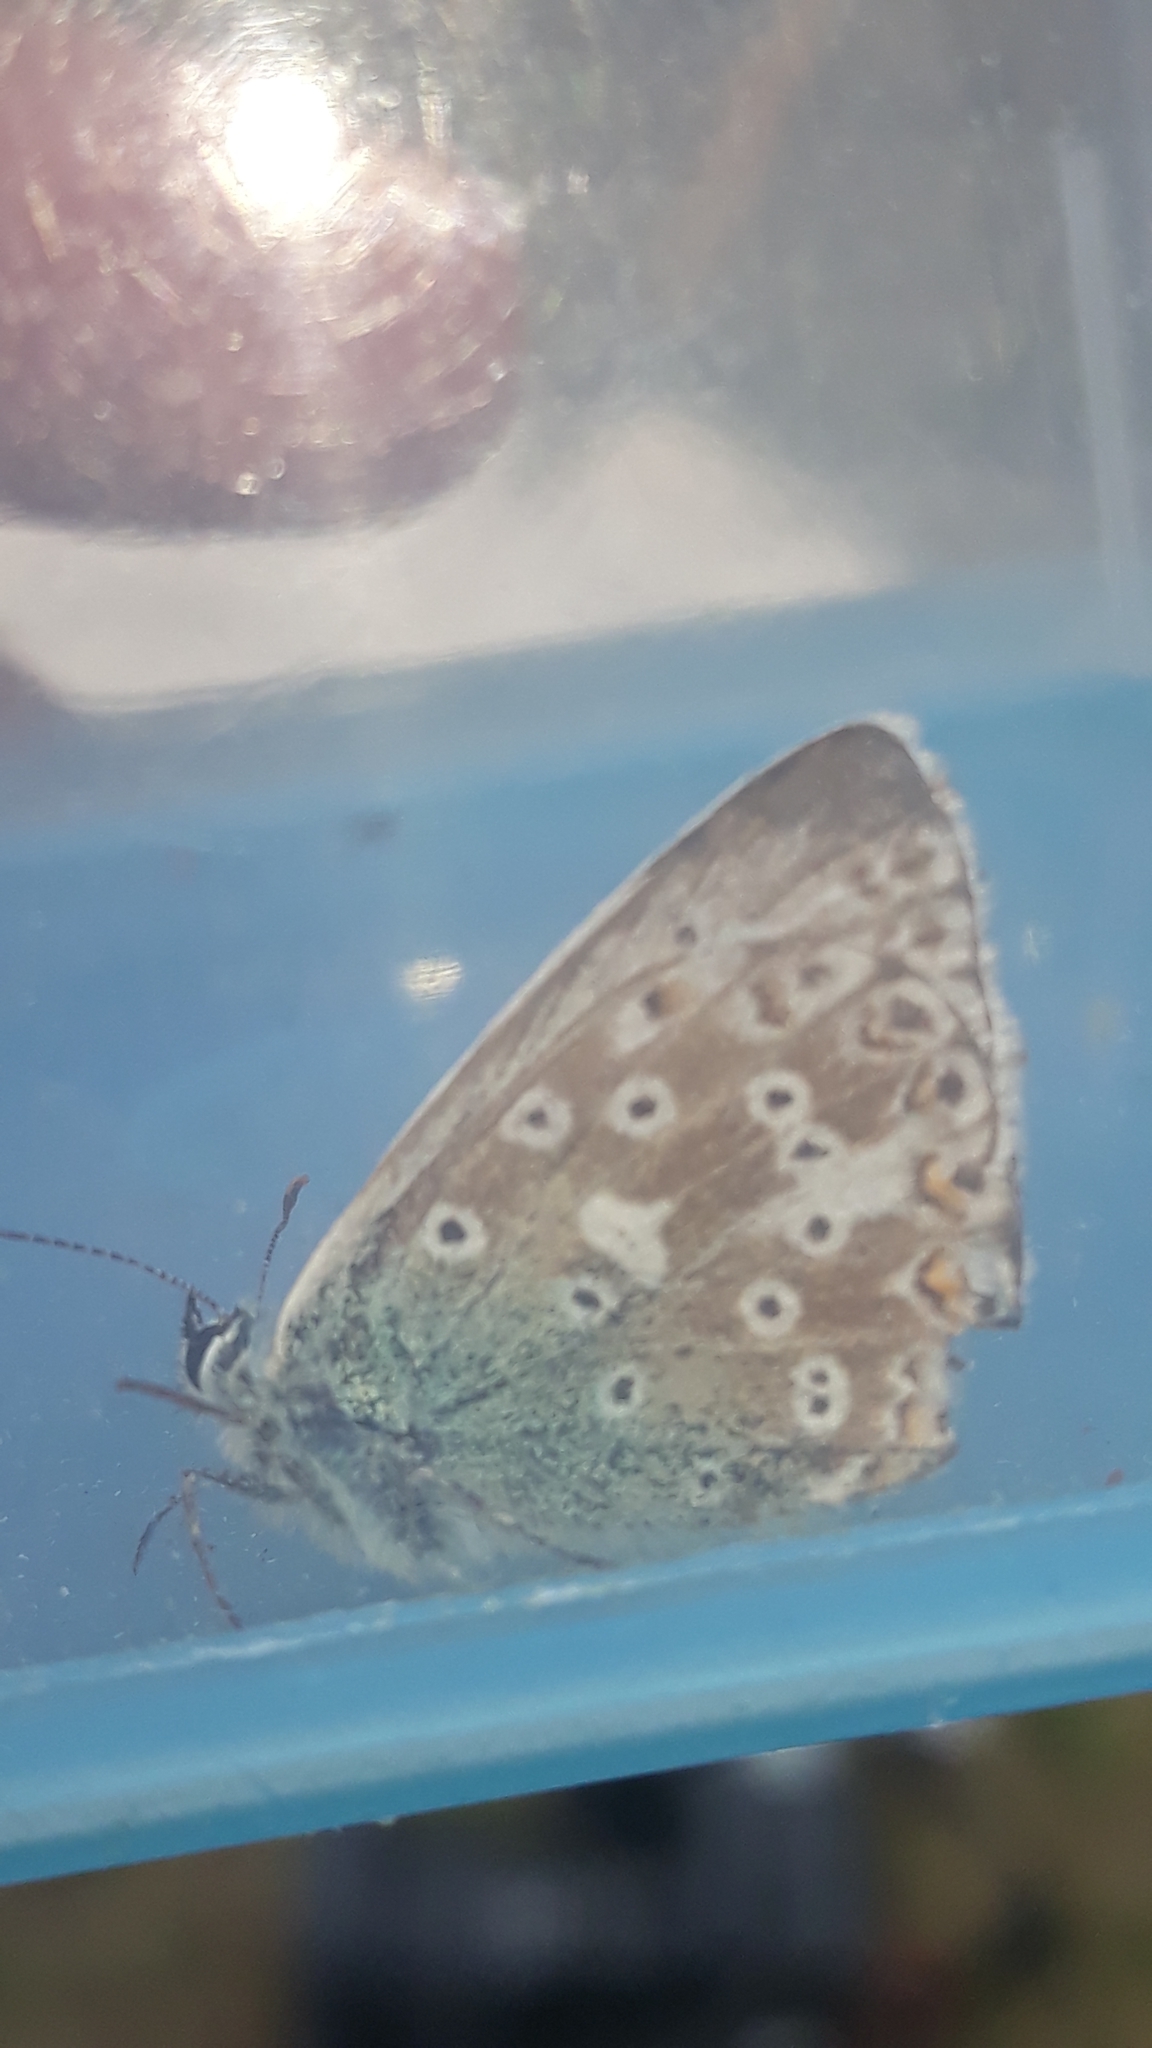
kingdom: Animalia
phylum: Arthropoda
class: Insecta
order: Lepidoptera
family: Lycaenidae
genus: Lysandra
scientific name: Lysandra coridon
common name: Chalkhill blue
